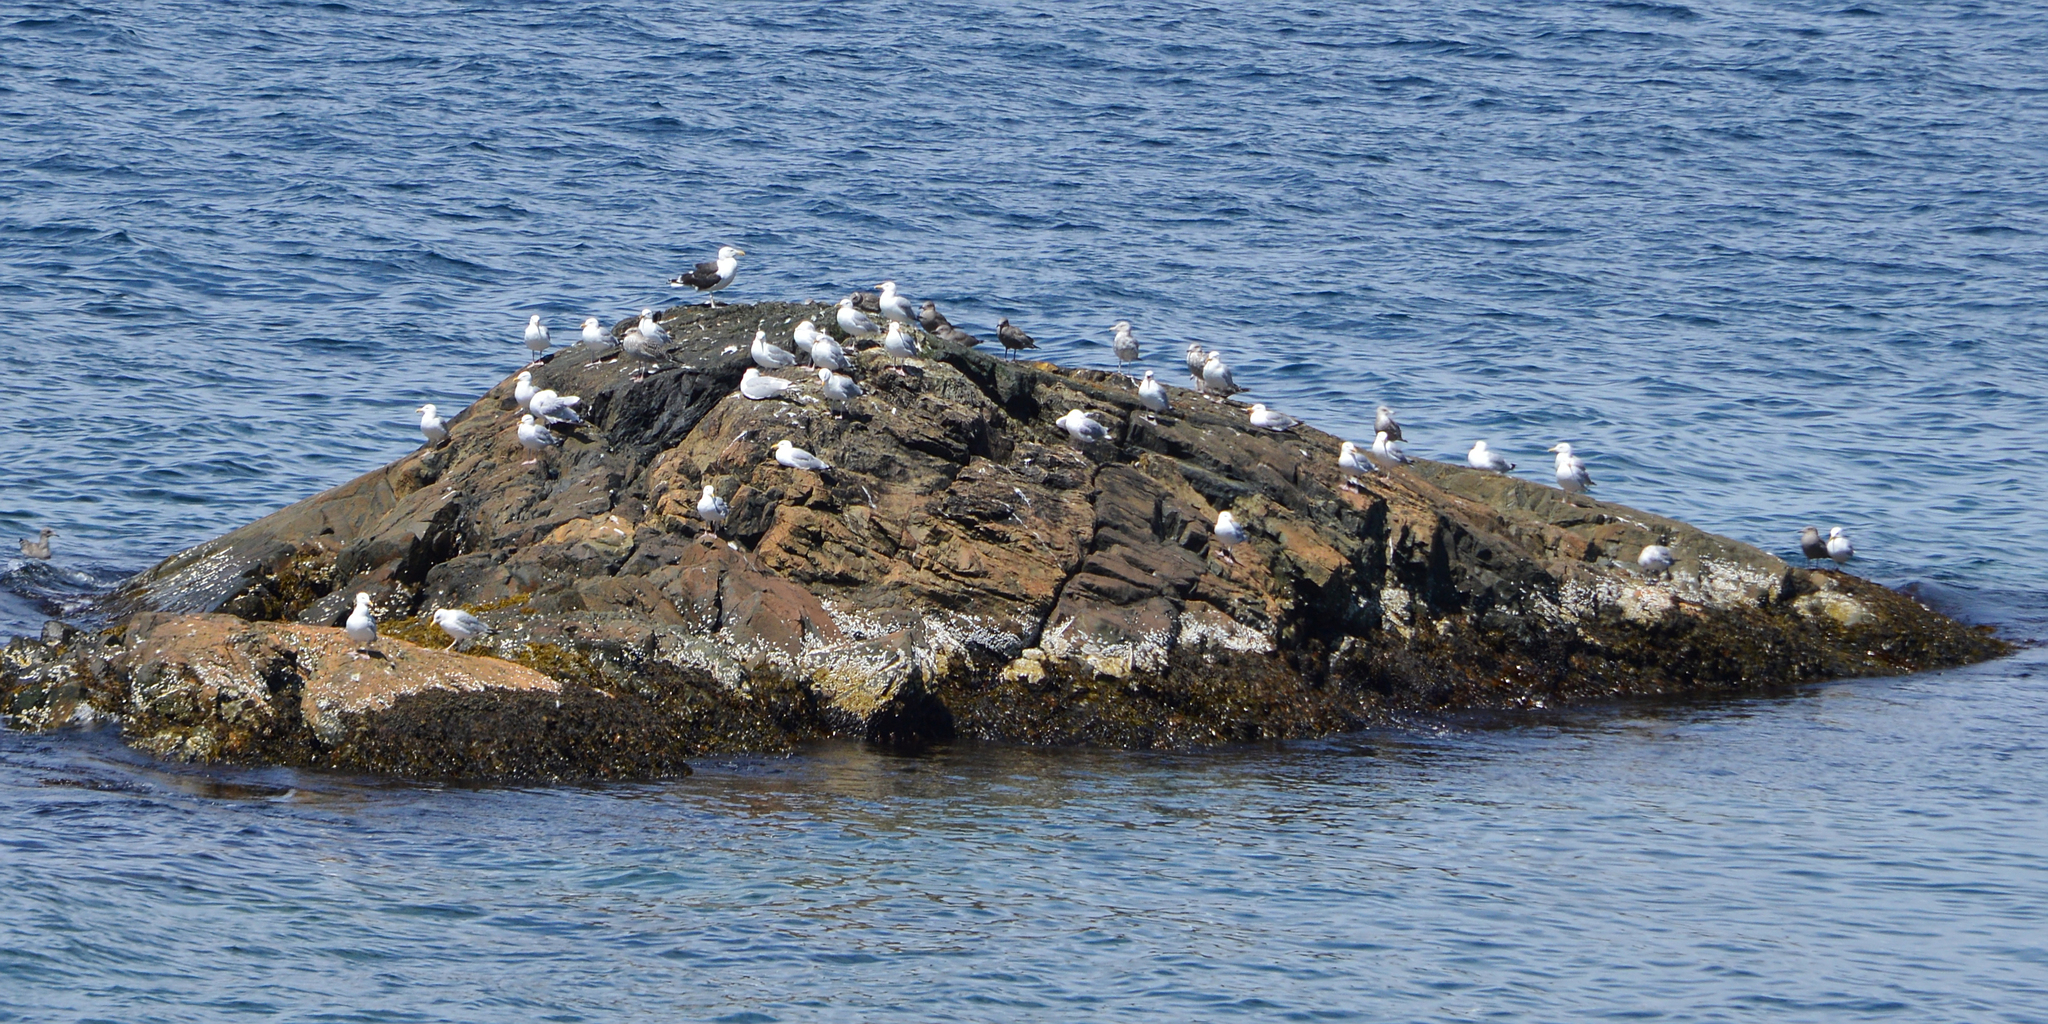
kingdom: Animalia
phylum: Chordata
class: Aves
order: Charadriiformes
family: Laridae
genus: Larus
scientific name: Larus argentatus
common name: Herring gull
